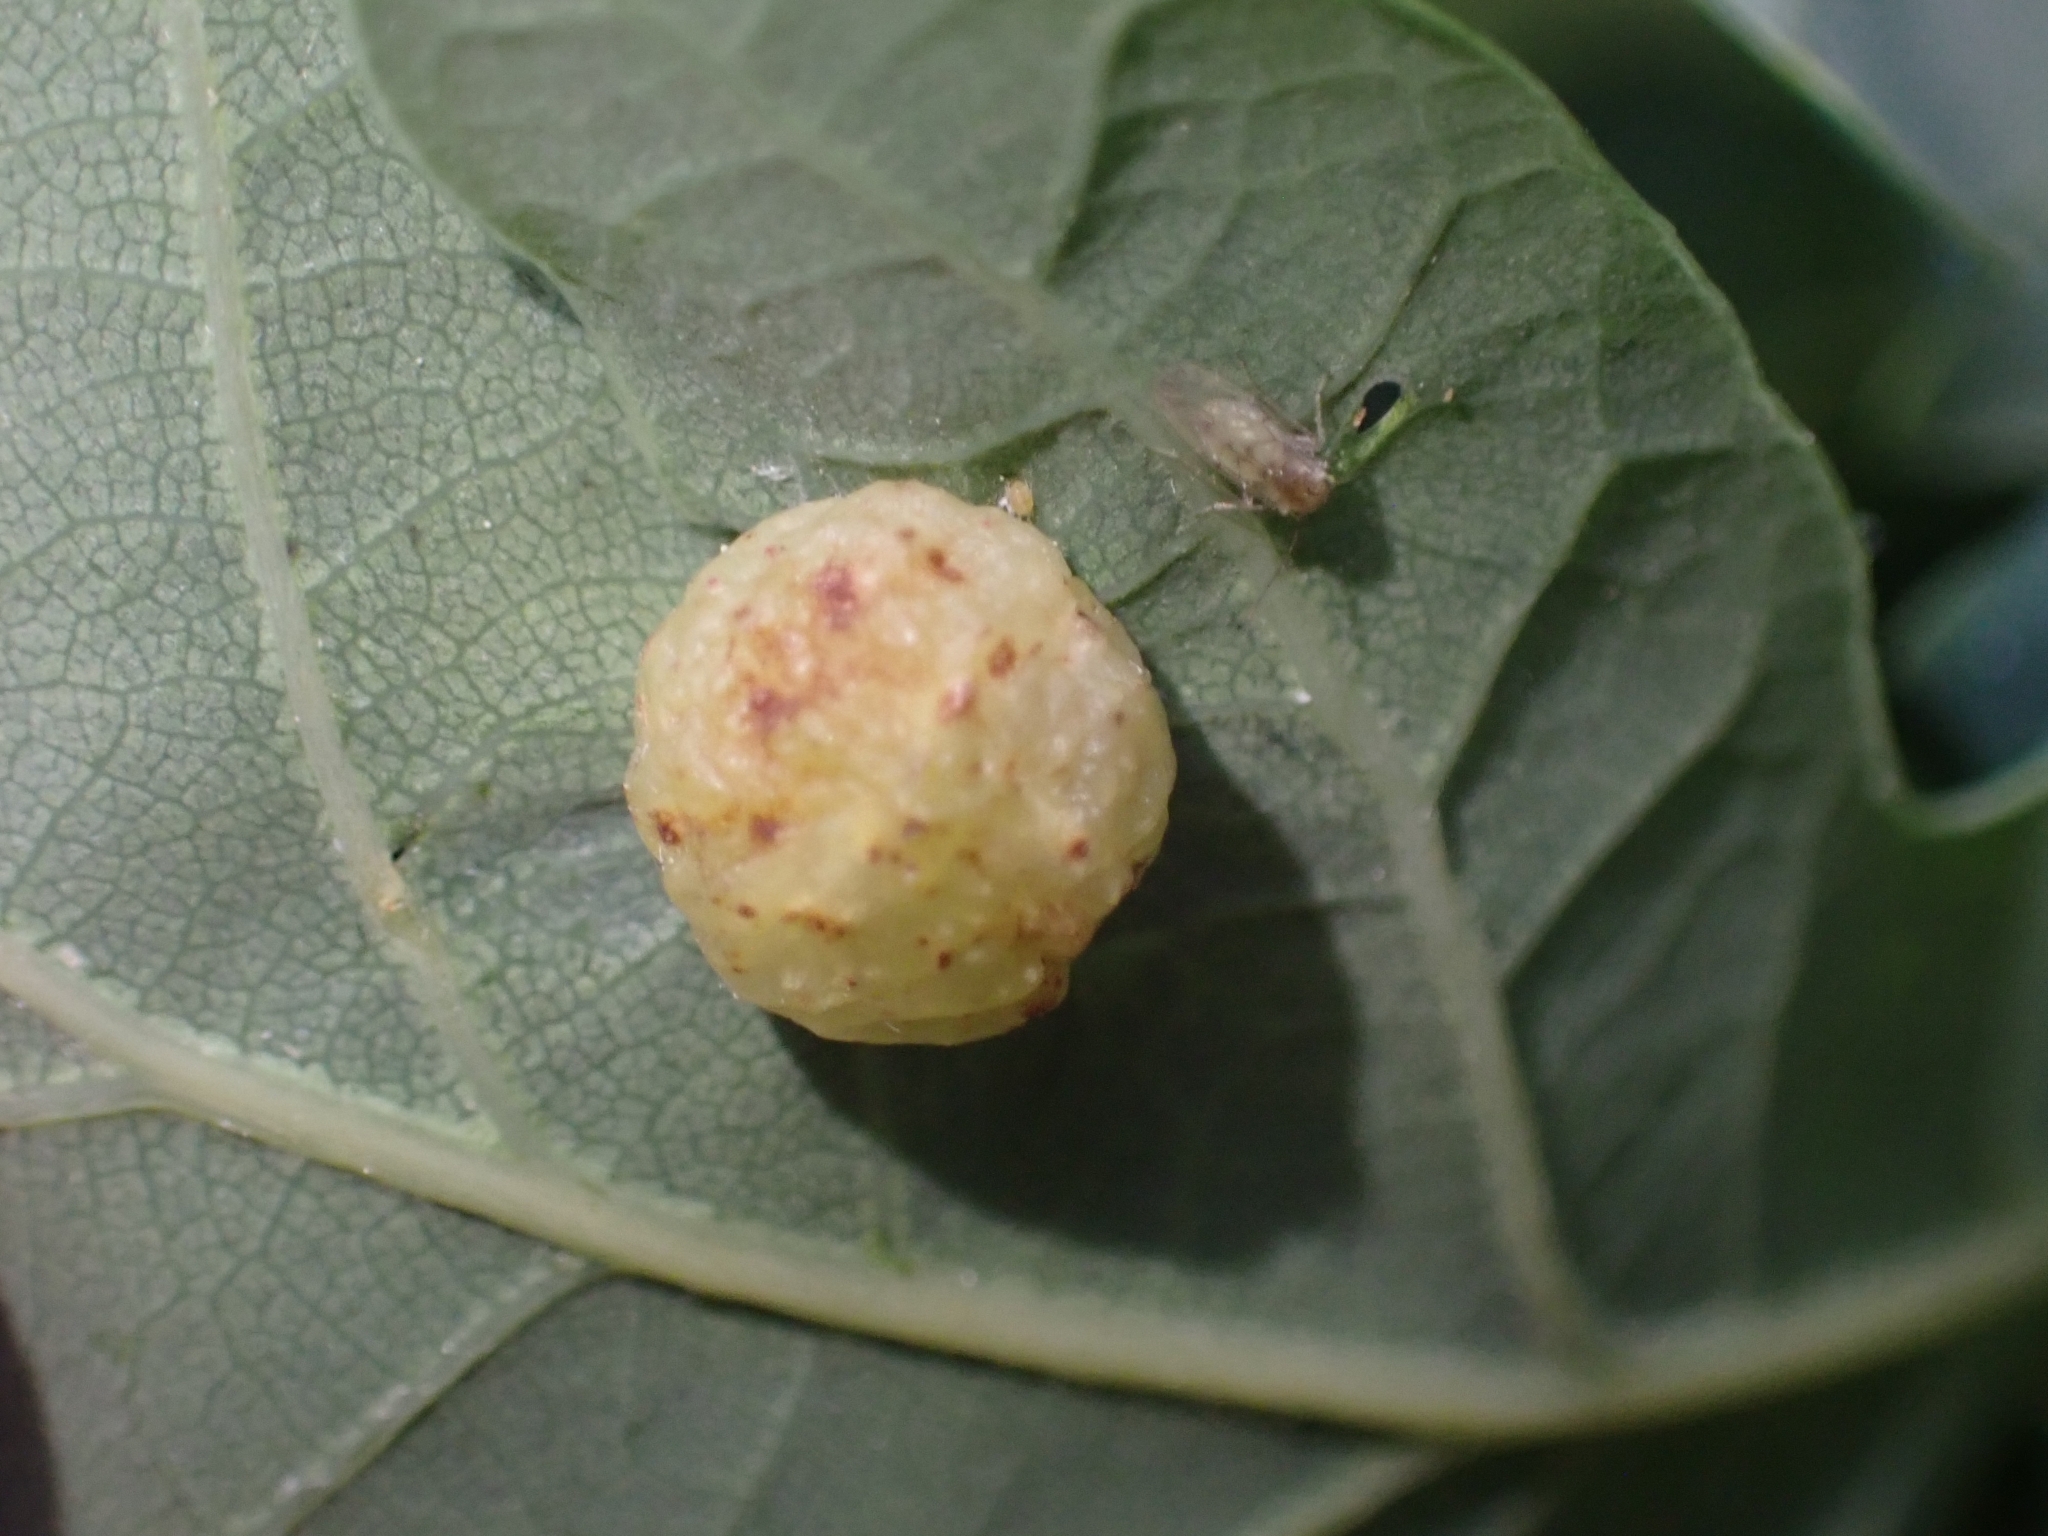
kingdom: Animalia
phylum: Arthropoda
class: Insecta
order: Hymenoptera
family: Cynipidae
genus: Neuroterus
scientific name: Neuroterus quercusbaccarum
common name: Common spangle gall
